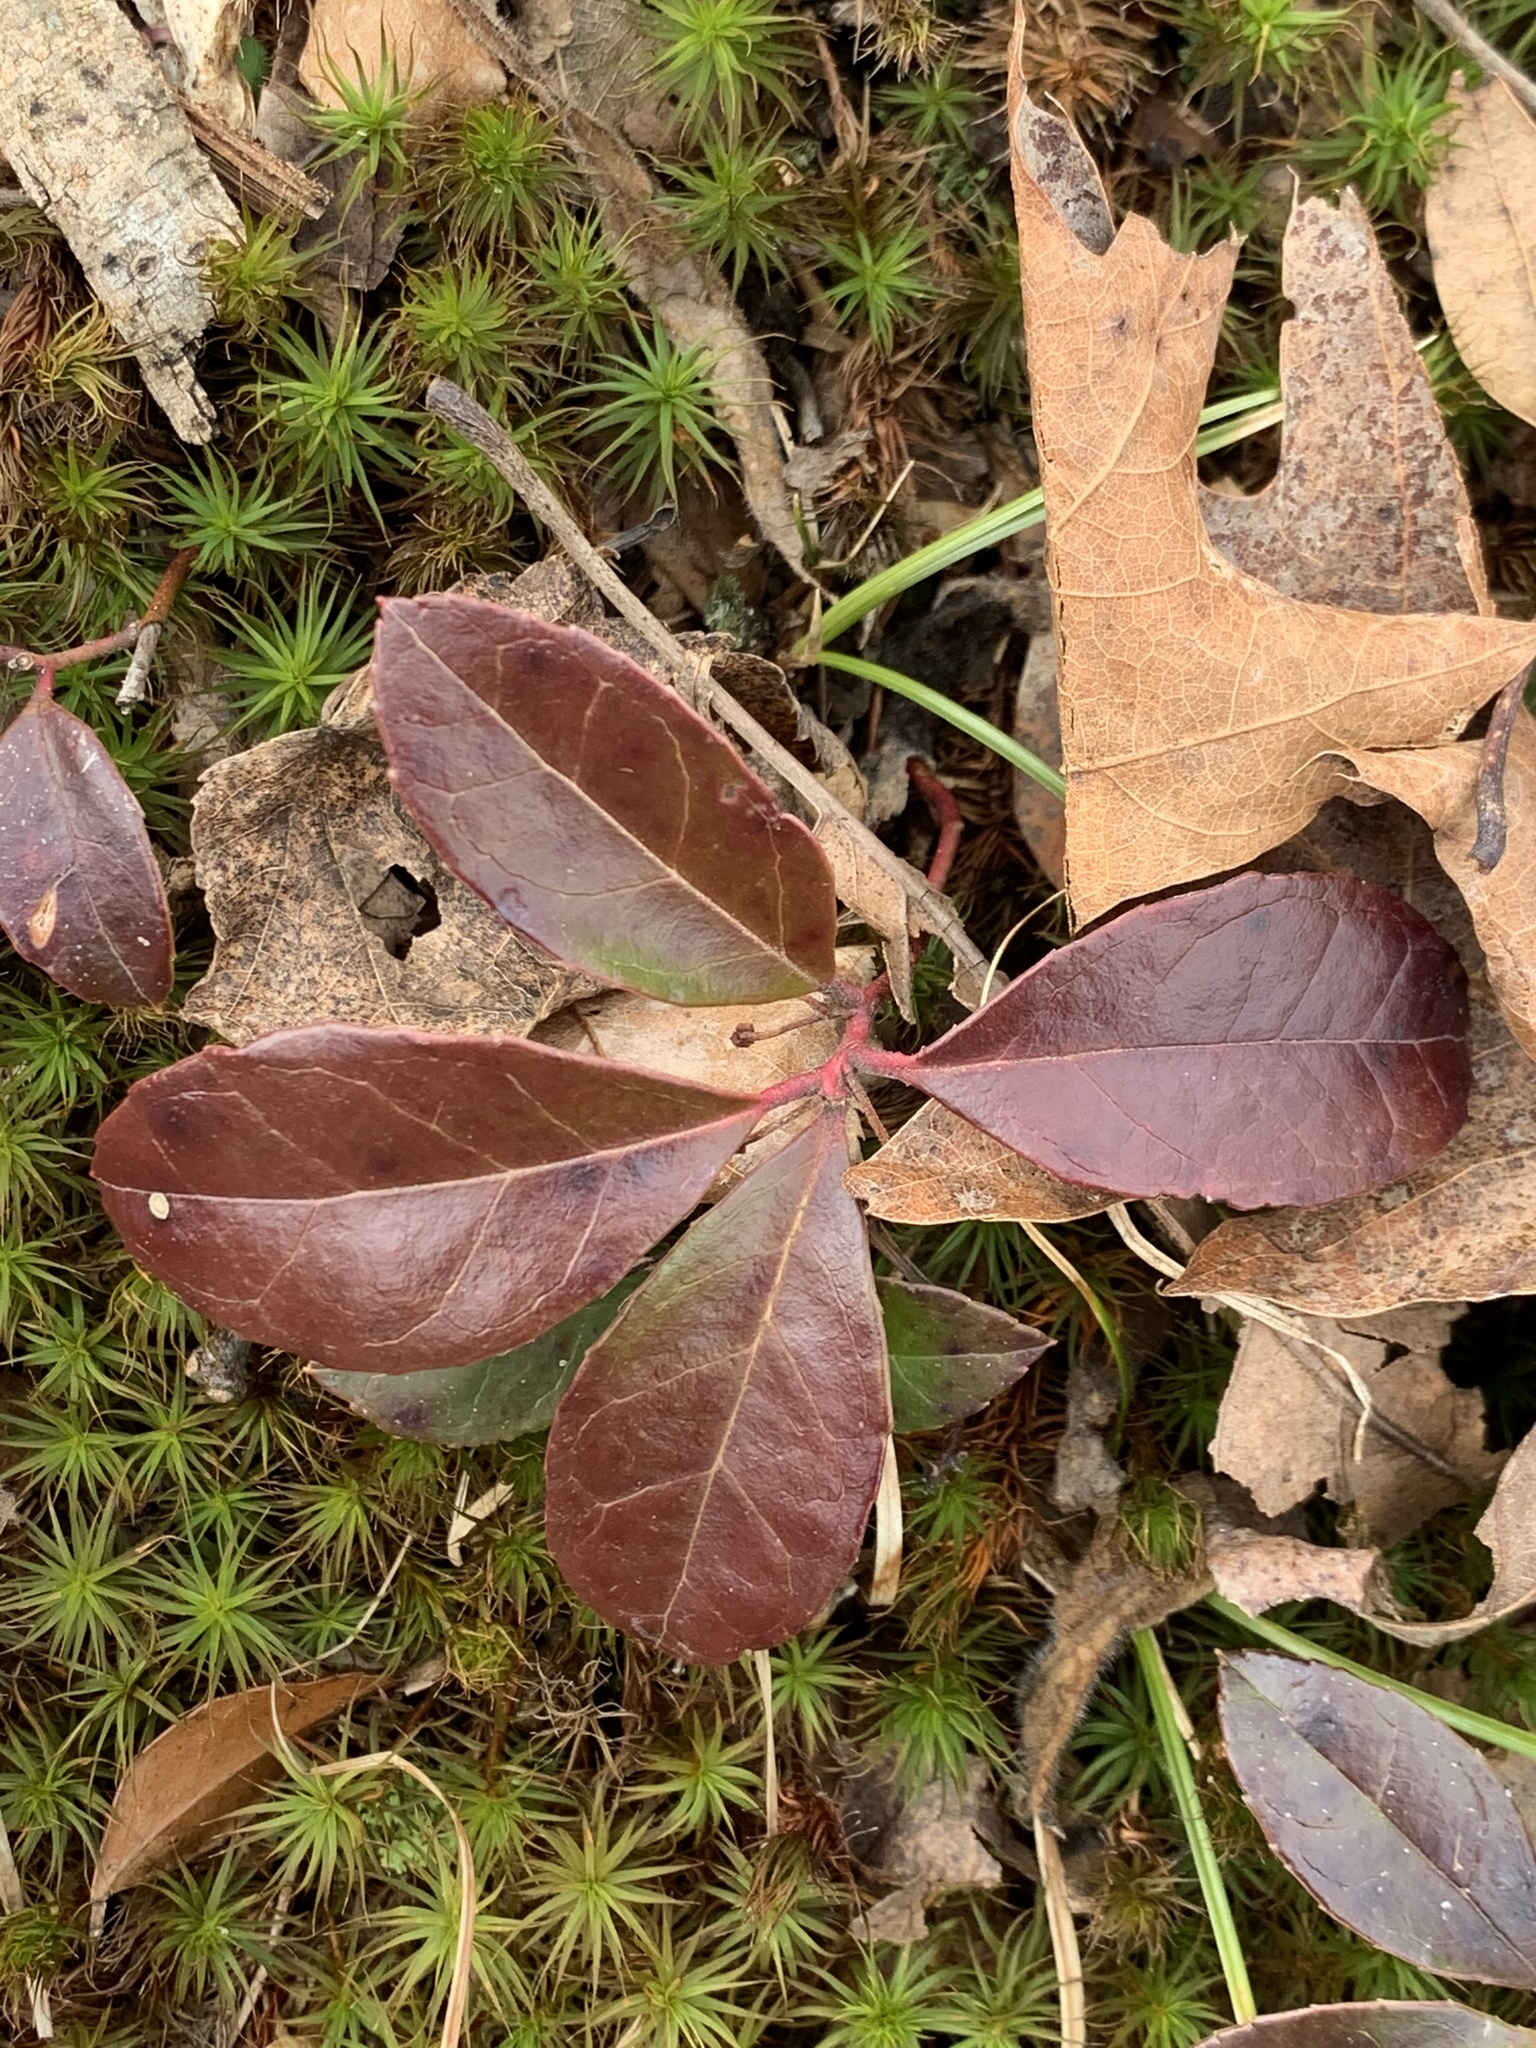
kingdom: Plantae
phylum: Tracheophyta
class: Magnoliopsida
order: Ericales
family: Ericaceae
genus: Gaultheria
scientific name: Gaultheria procumbens
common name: Checkerberry
